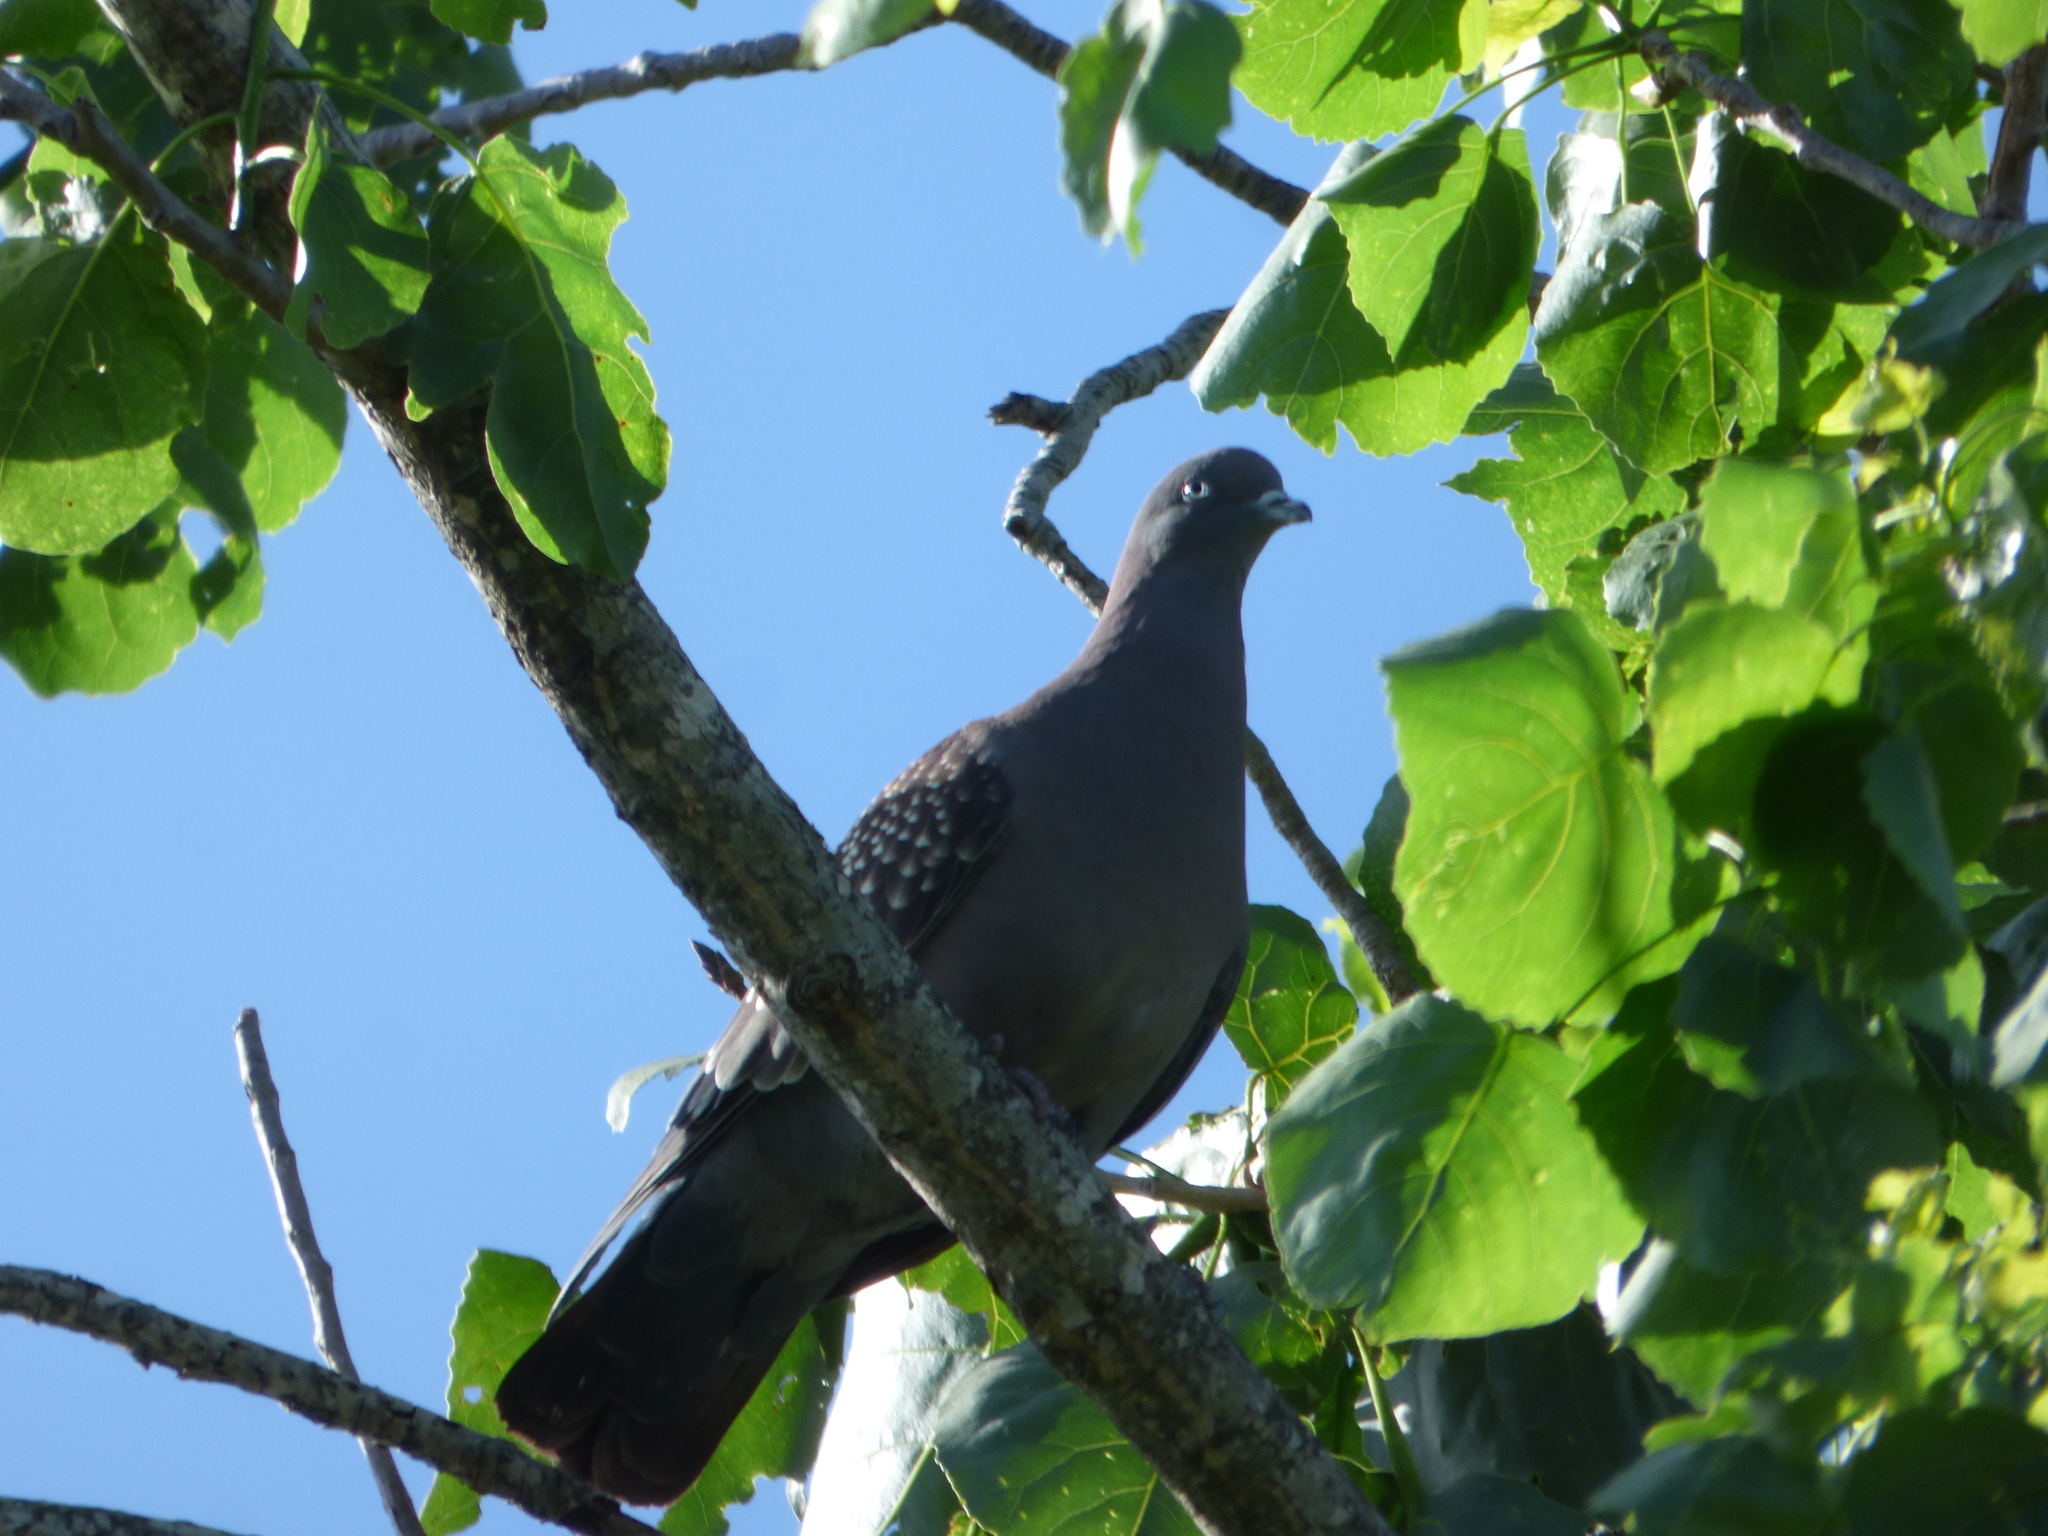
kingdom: Animalia
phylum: Chordata
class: Aves
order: Columbiformes
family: Columbidae
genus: Patagioenas
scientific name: Patagioenas maculosa
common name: Spot-winged pigeon
